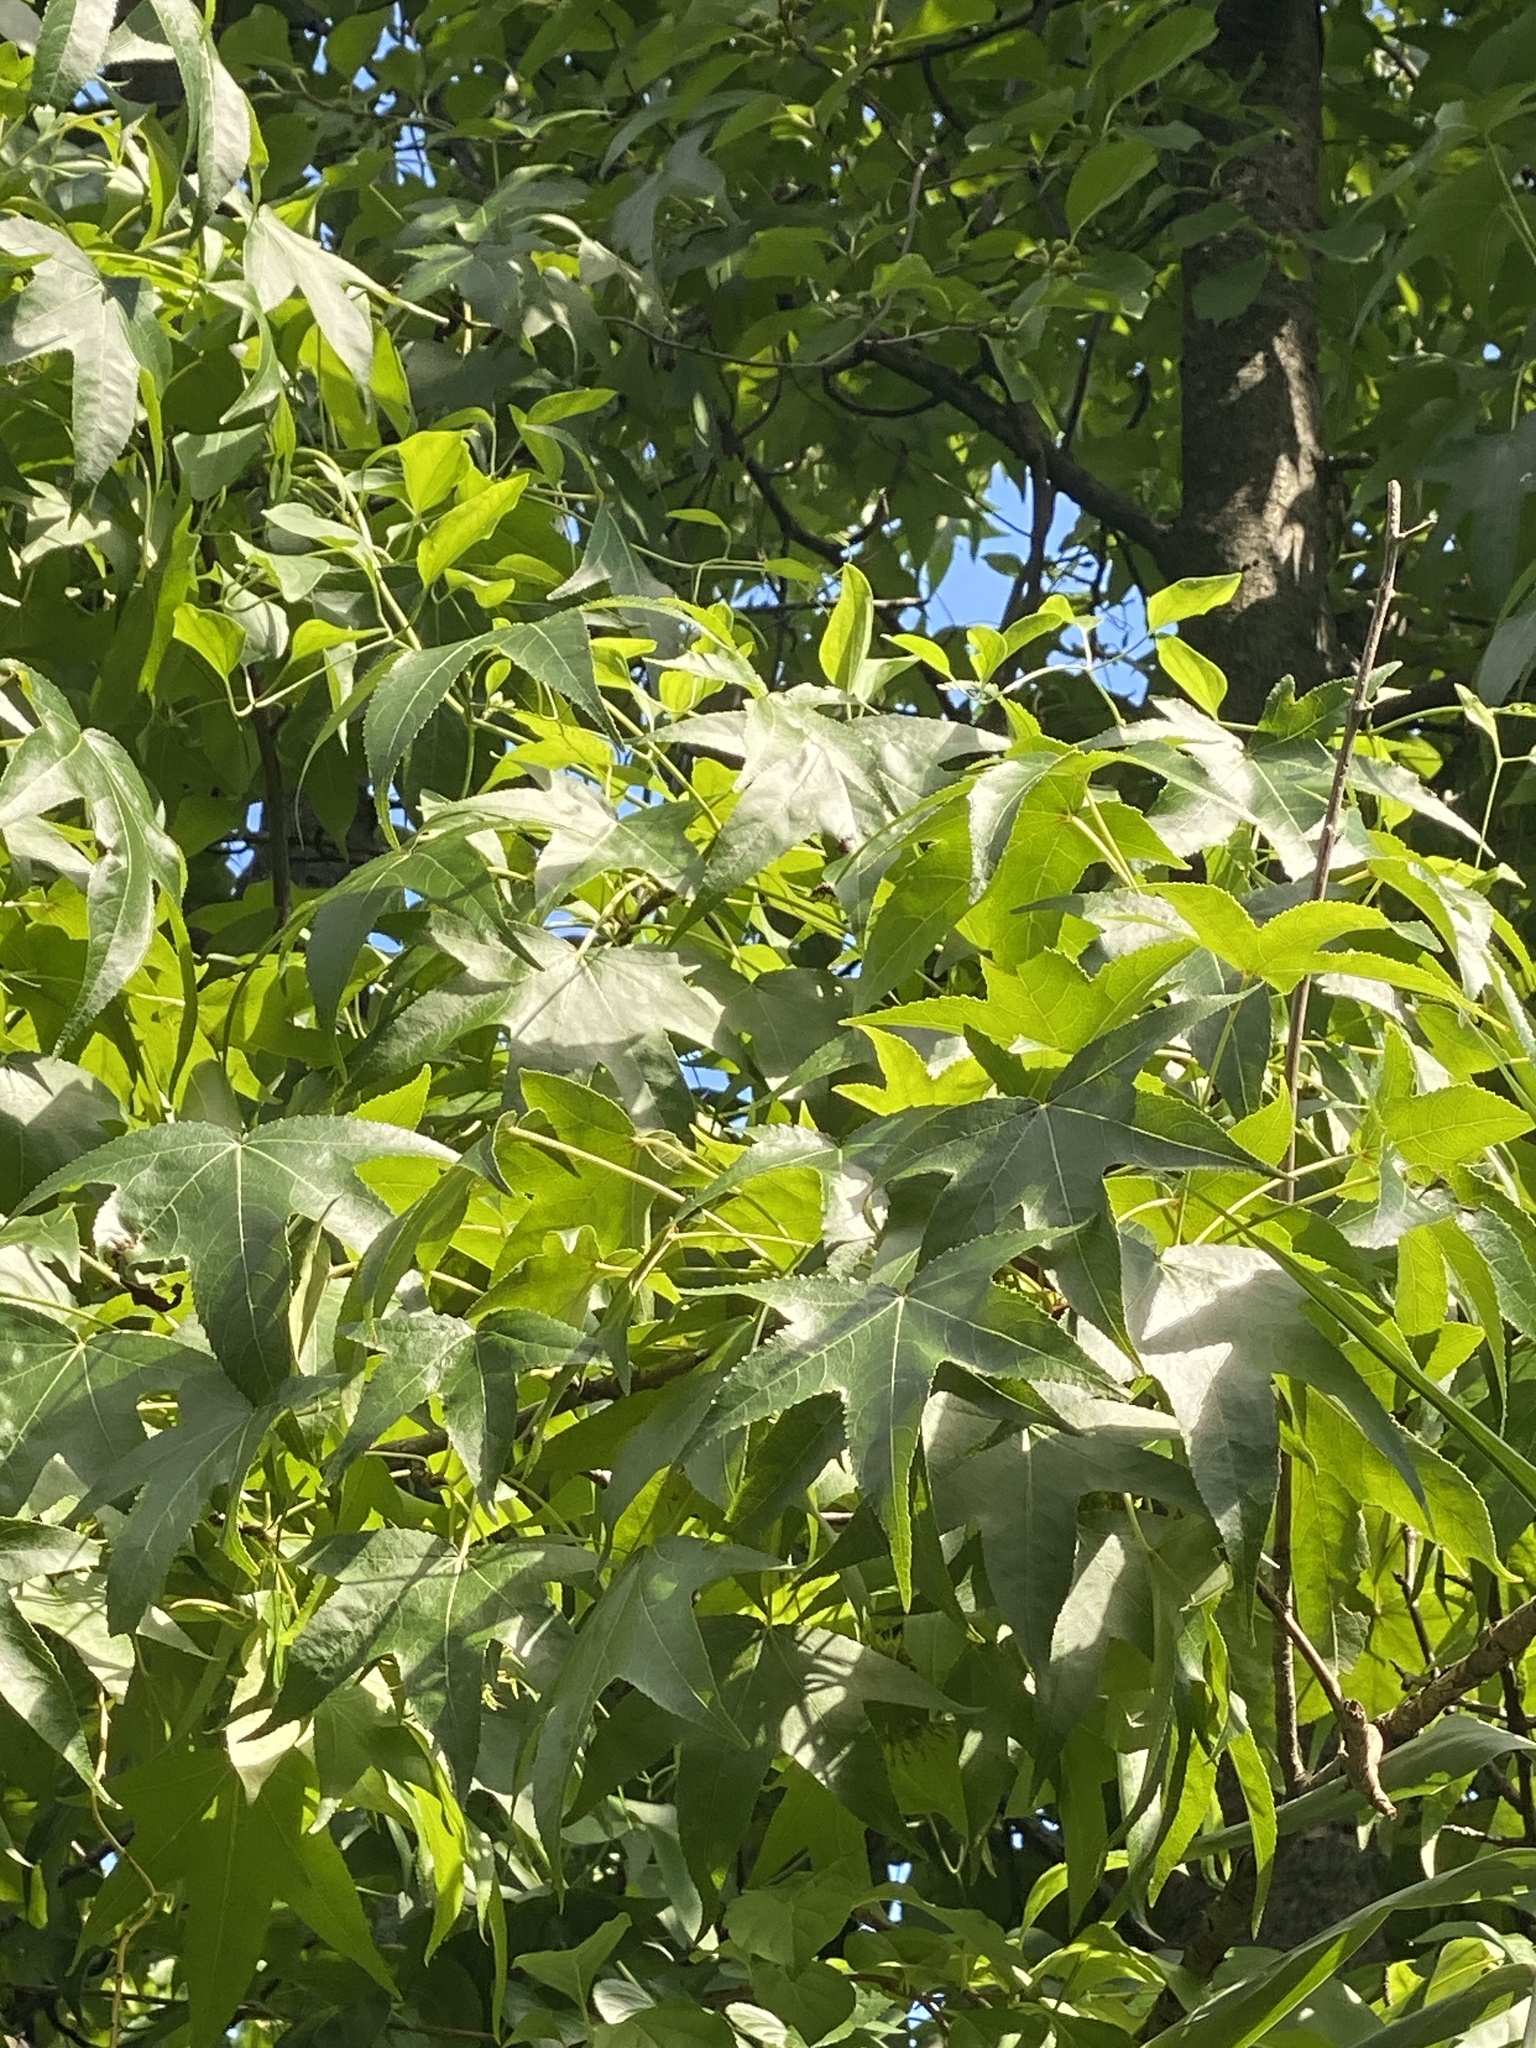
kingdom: Plantae
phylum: Tracheophyta
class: Magnoliopsida
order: Saxifragales
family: Altingiaceae
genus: Liquidambar
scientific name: Liquidambar styraciflua
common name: Sweet gum
